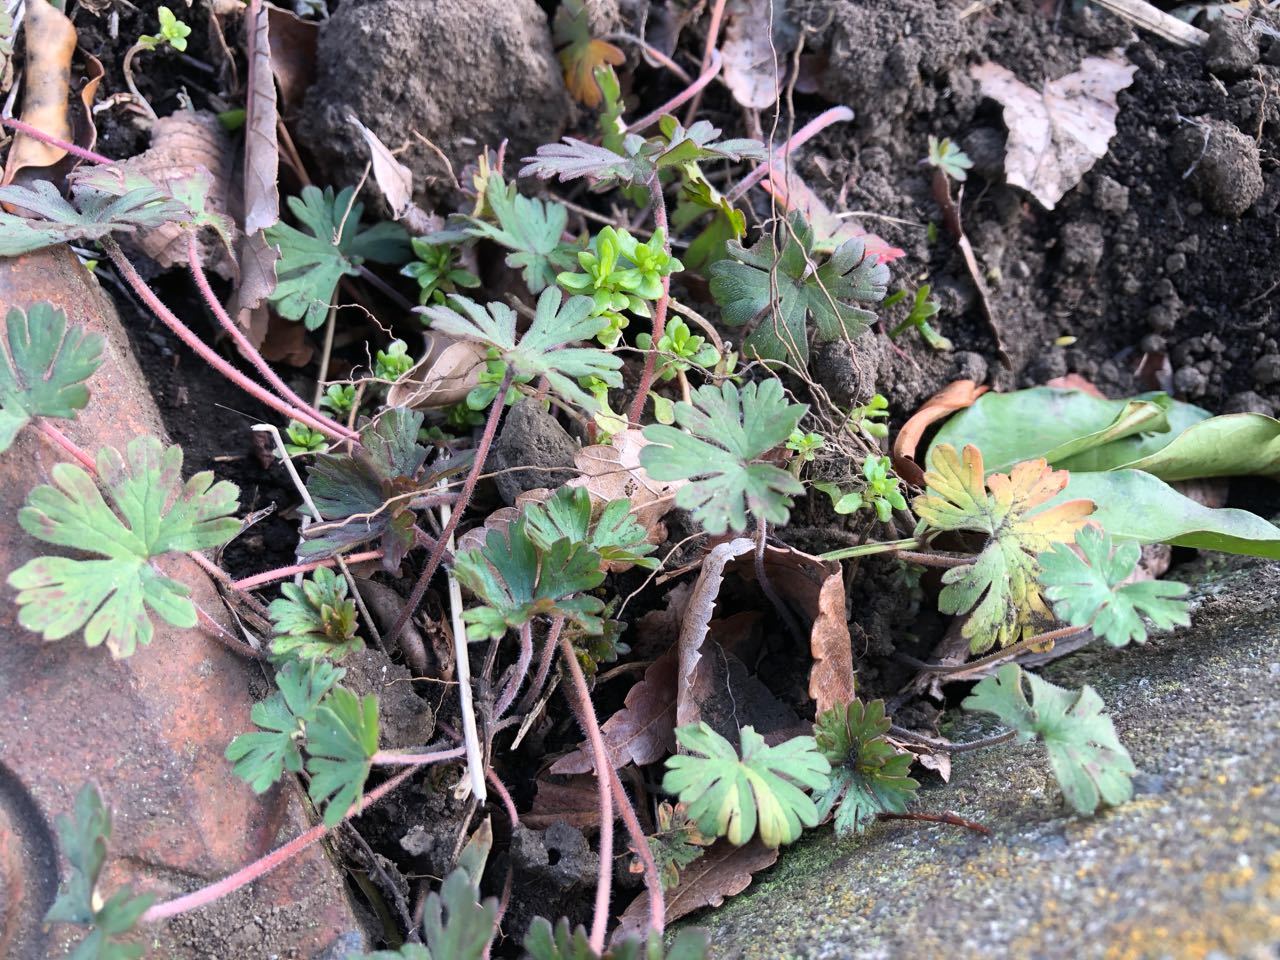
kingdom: Plantae
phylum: Tracheophyta
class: Magnoliopsida
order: Geraniales
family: Geraniaceae
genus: Geranium
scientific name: Geranium carolinianum
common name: Carolina crane's-bill
